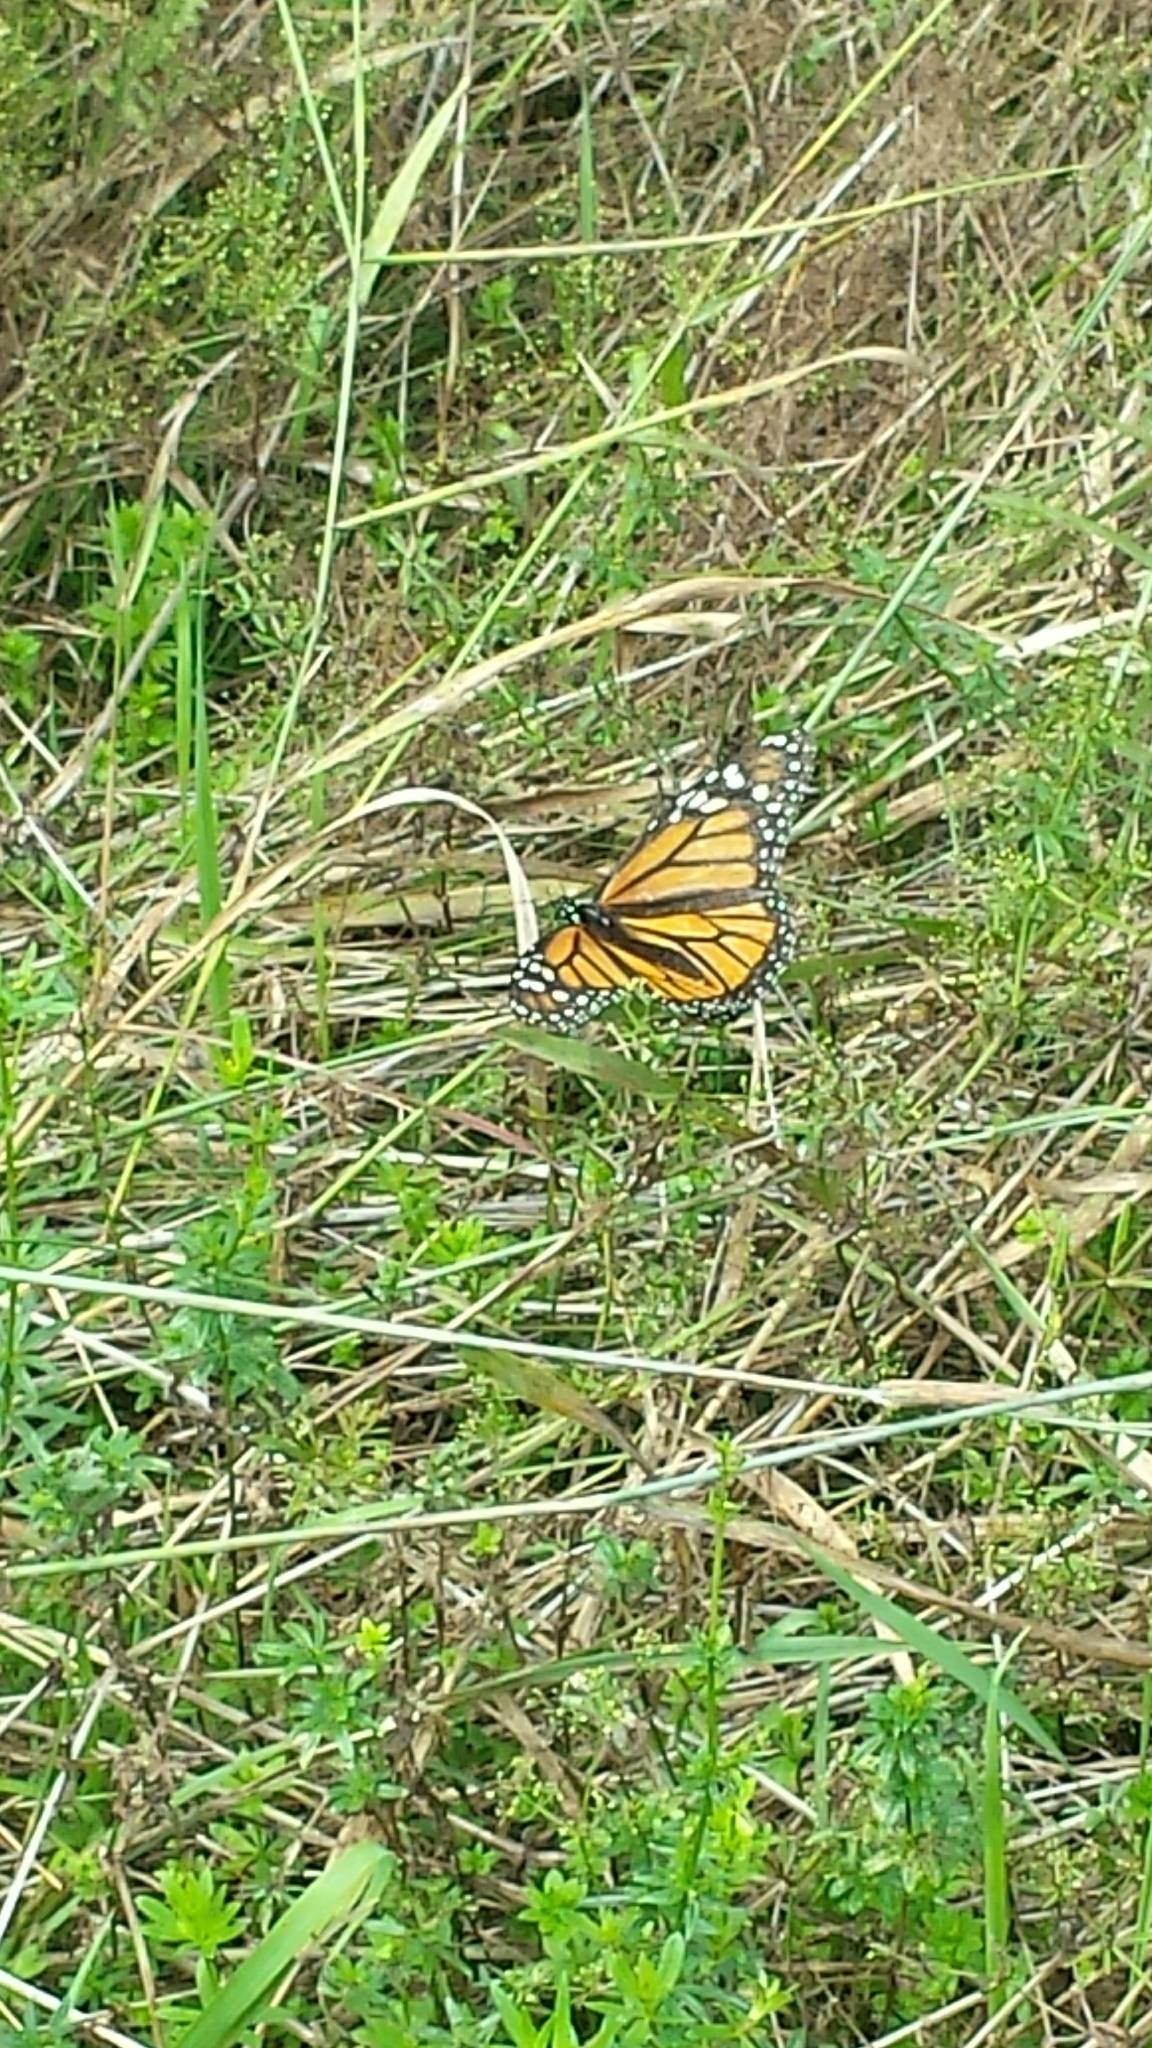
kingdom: Animalia
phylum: Arthropoda
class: Insecta
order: Lepidoptera
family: Nymphalidae
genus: Danaus
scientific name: Danaus plexippus
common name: Monarch
